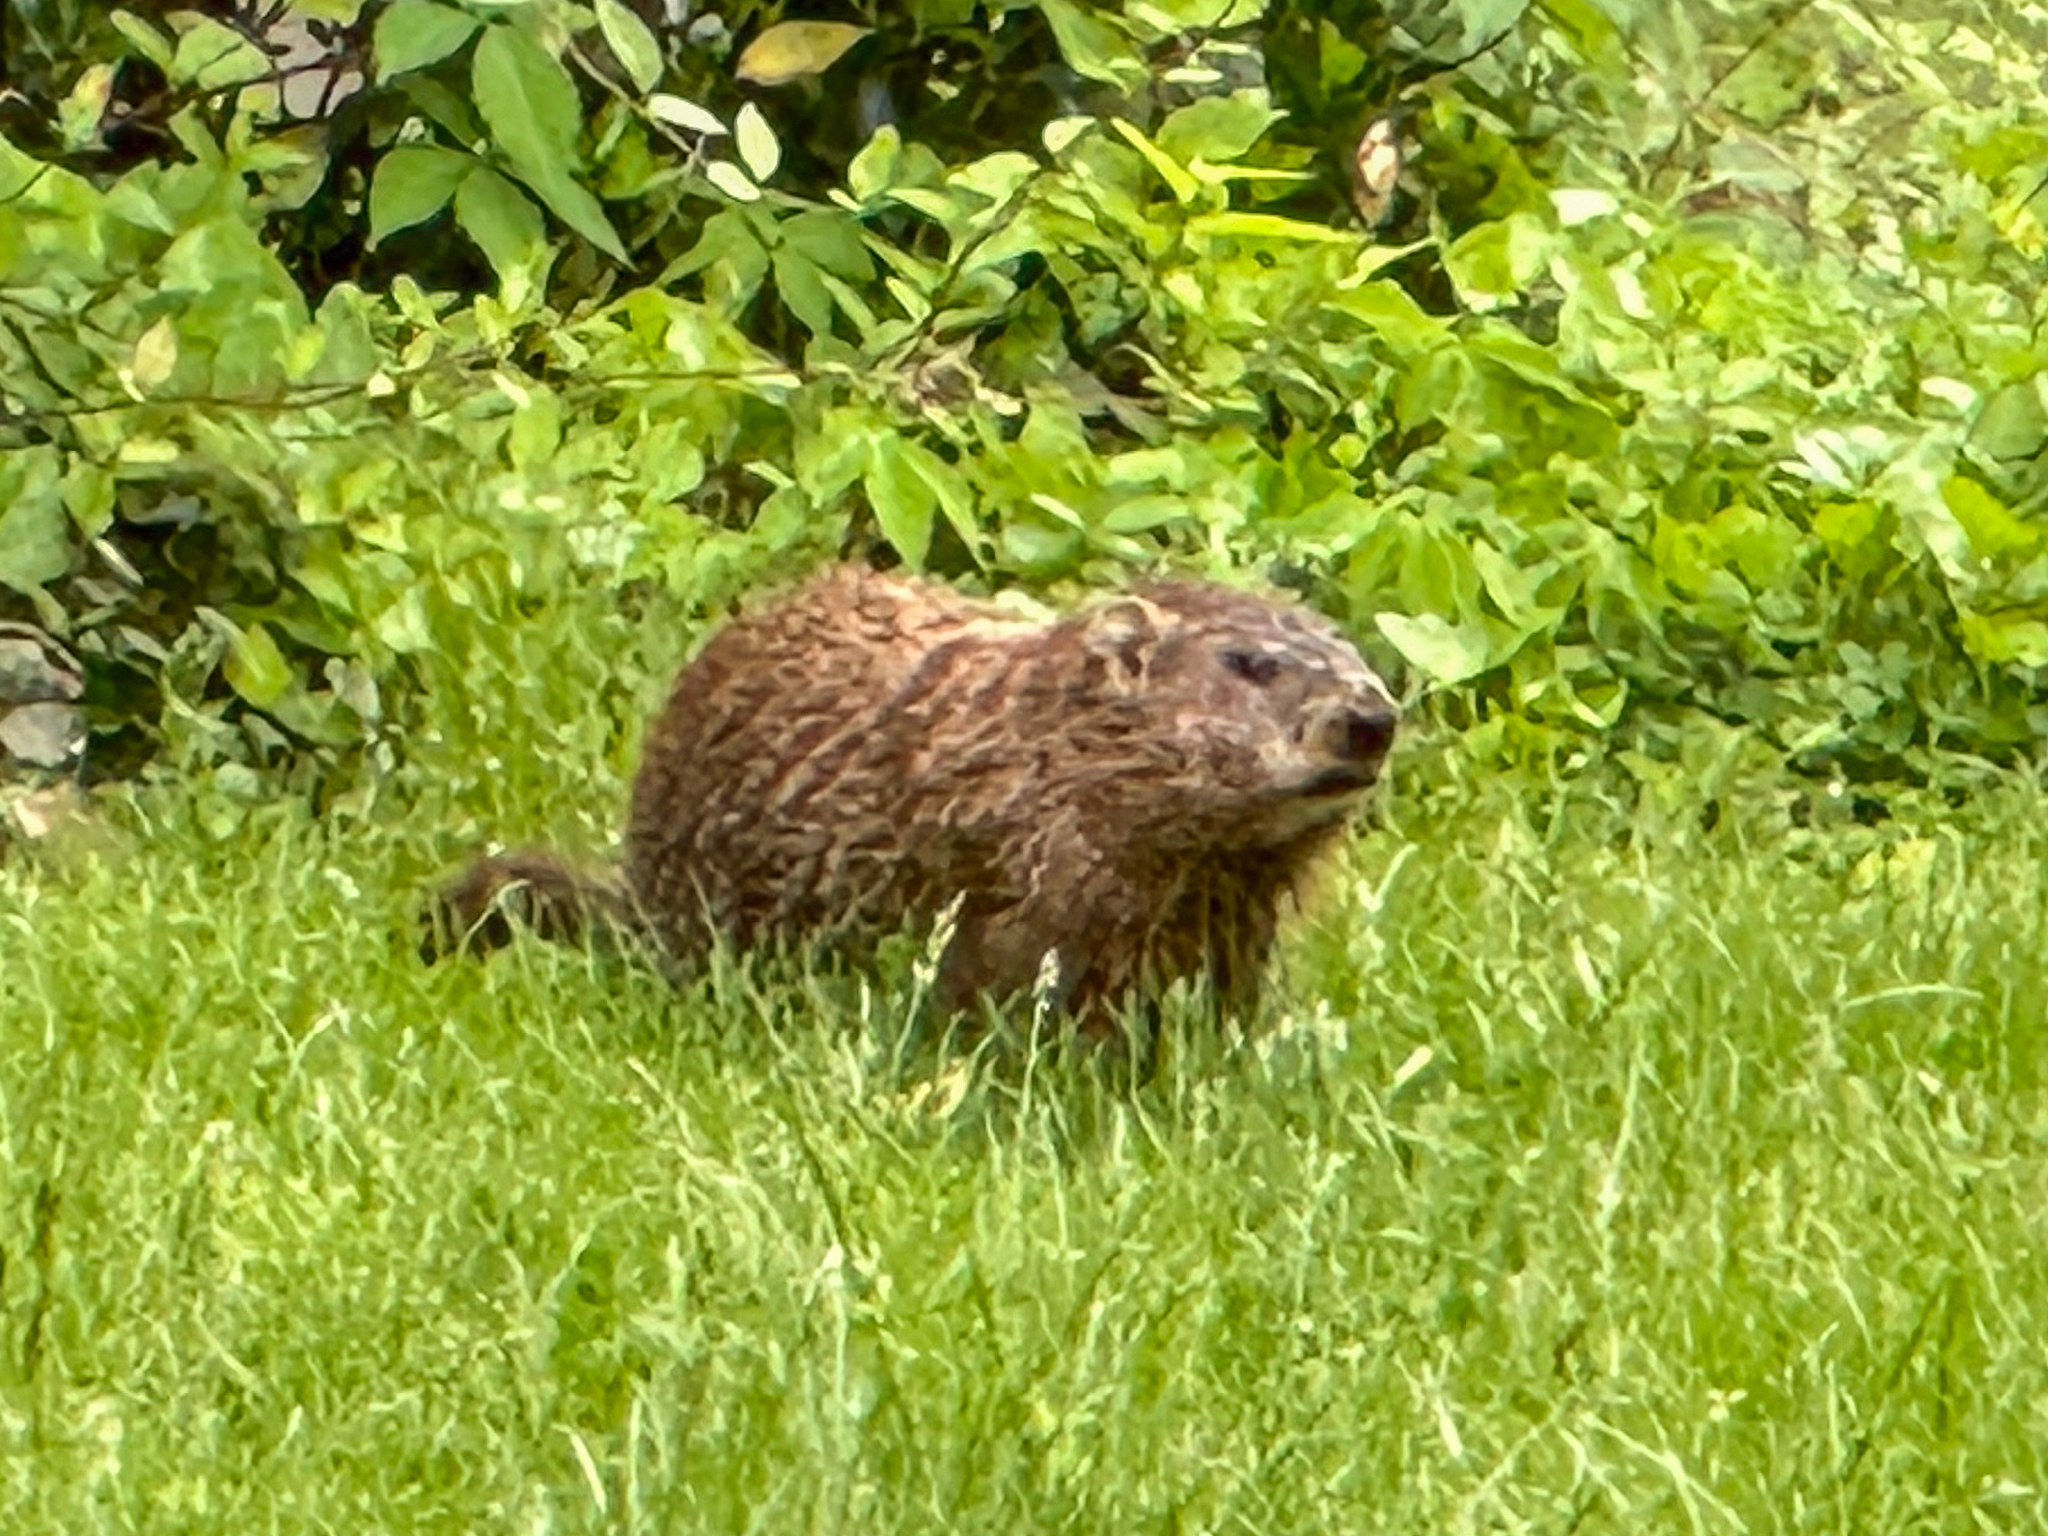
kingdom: Animalia
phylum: Chordata
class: Mammalia
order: Rodentia
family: Sciuridae
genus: Marmota
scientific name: Marmota monax
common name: Groundhog
